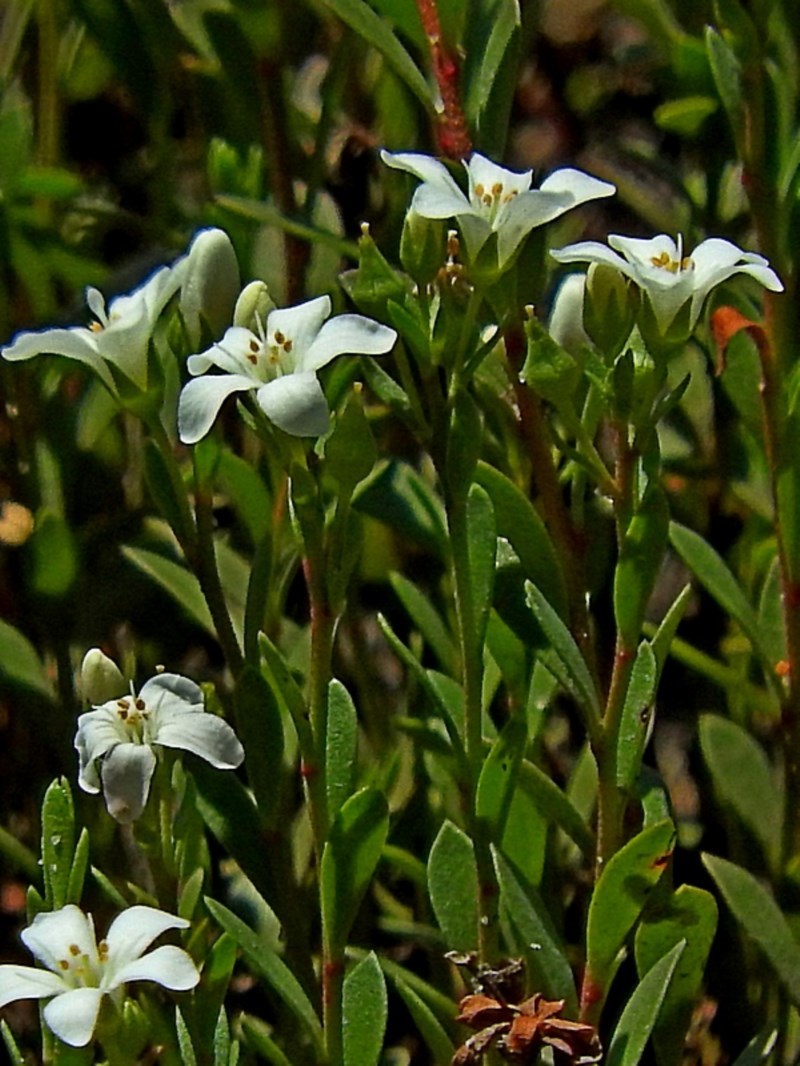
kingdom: Plantae
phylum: Tracheophyta
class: Magnoliopsida
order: Ericales
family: Primulaceae
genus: Samolus
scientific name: Samolus repens
